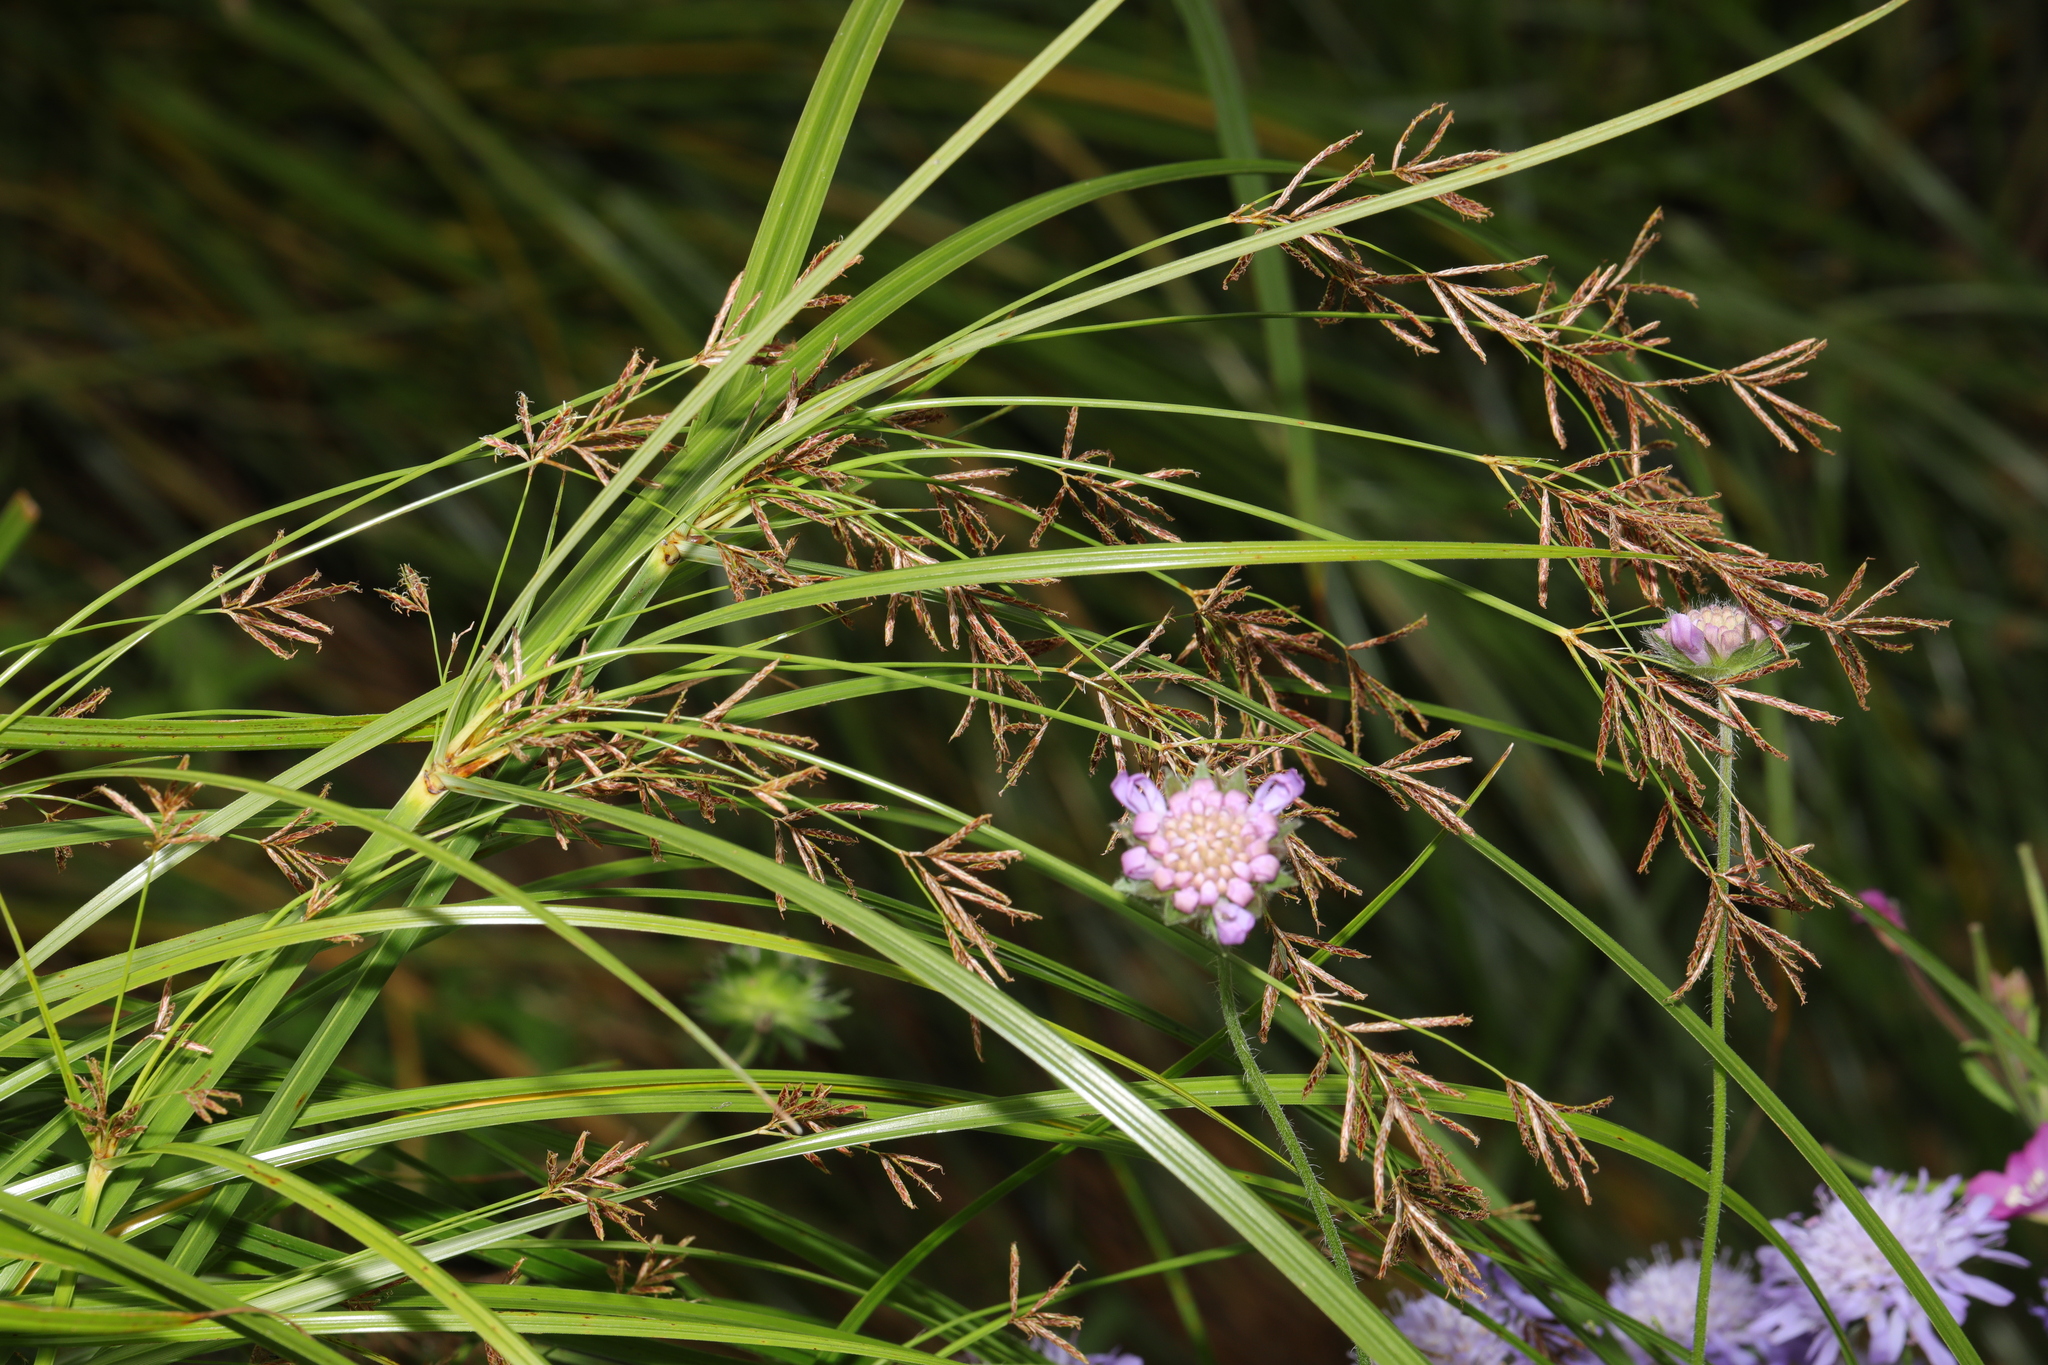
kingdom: Plantae
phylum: Tracheophyta
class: Liliopsida
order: Poales
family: Cyperaceae
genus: Cyperus
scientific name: Cyperus longus
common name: Galingale
